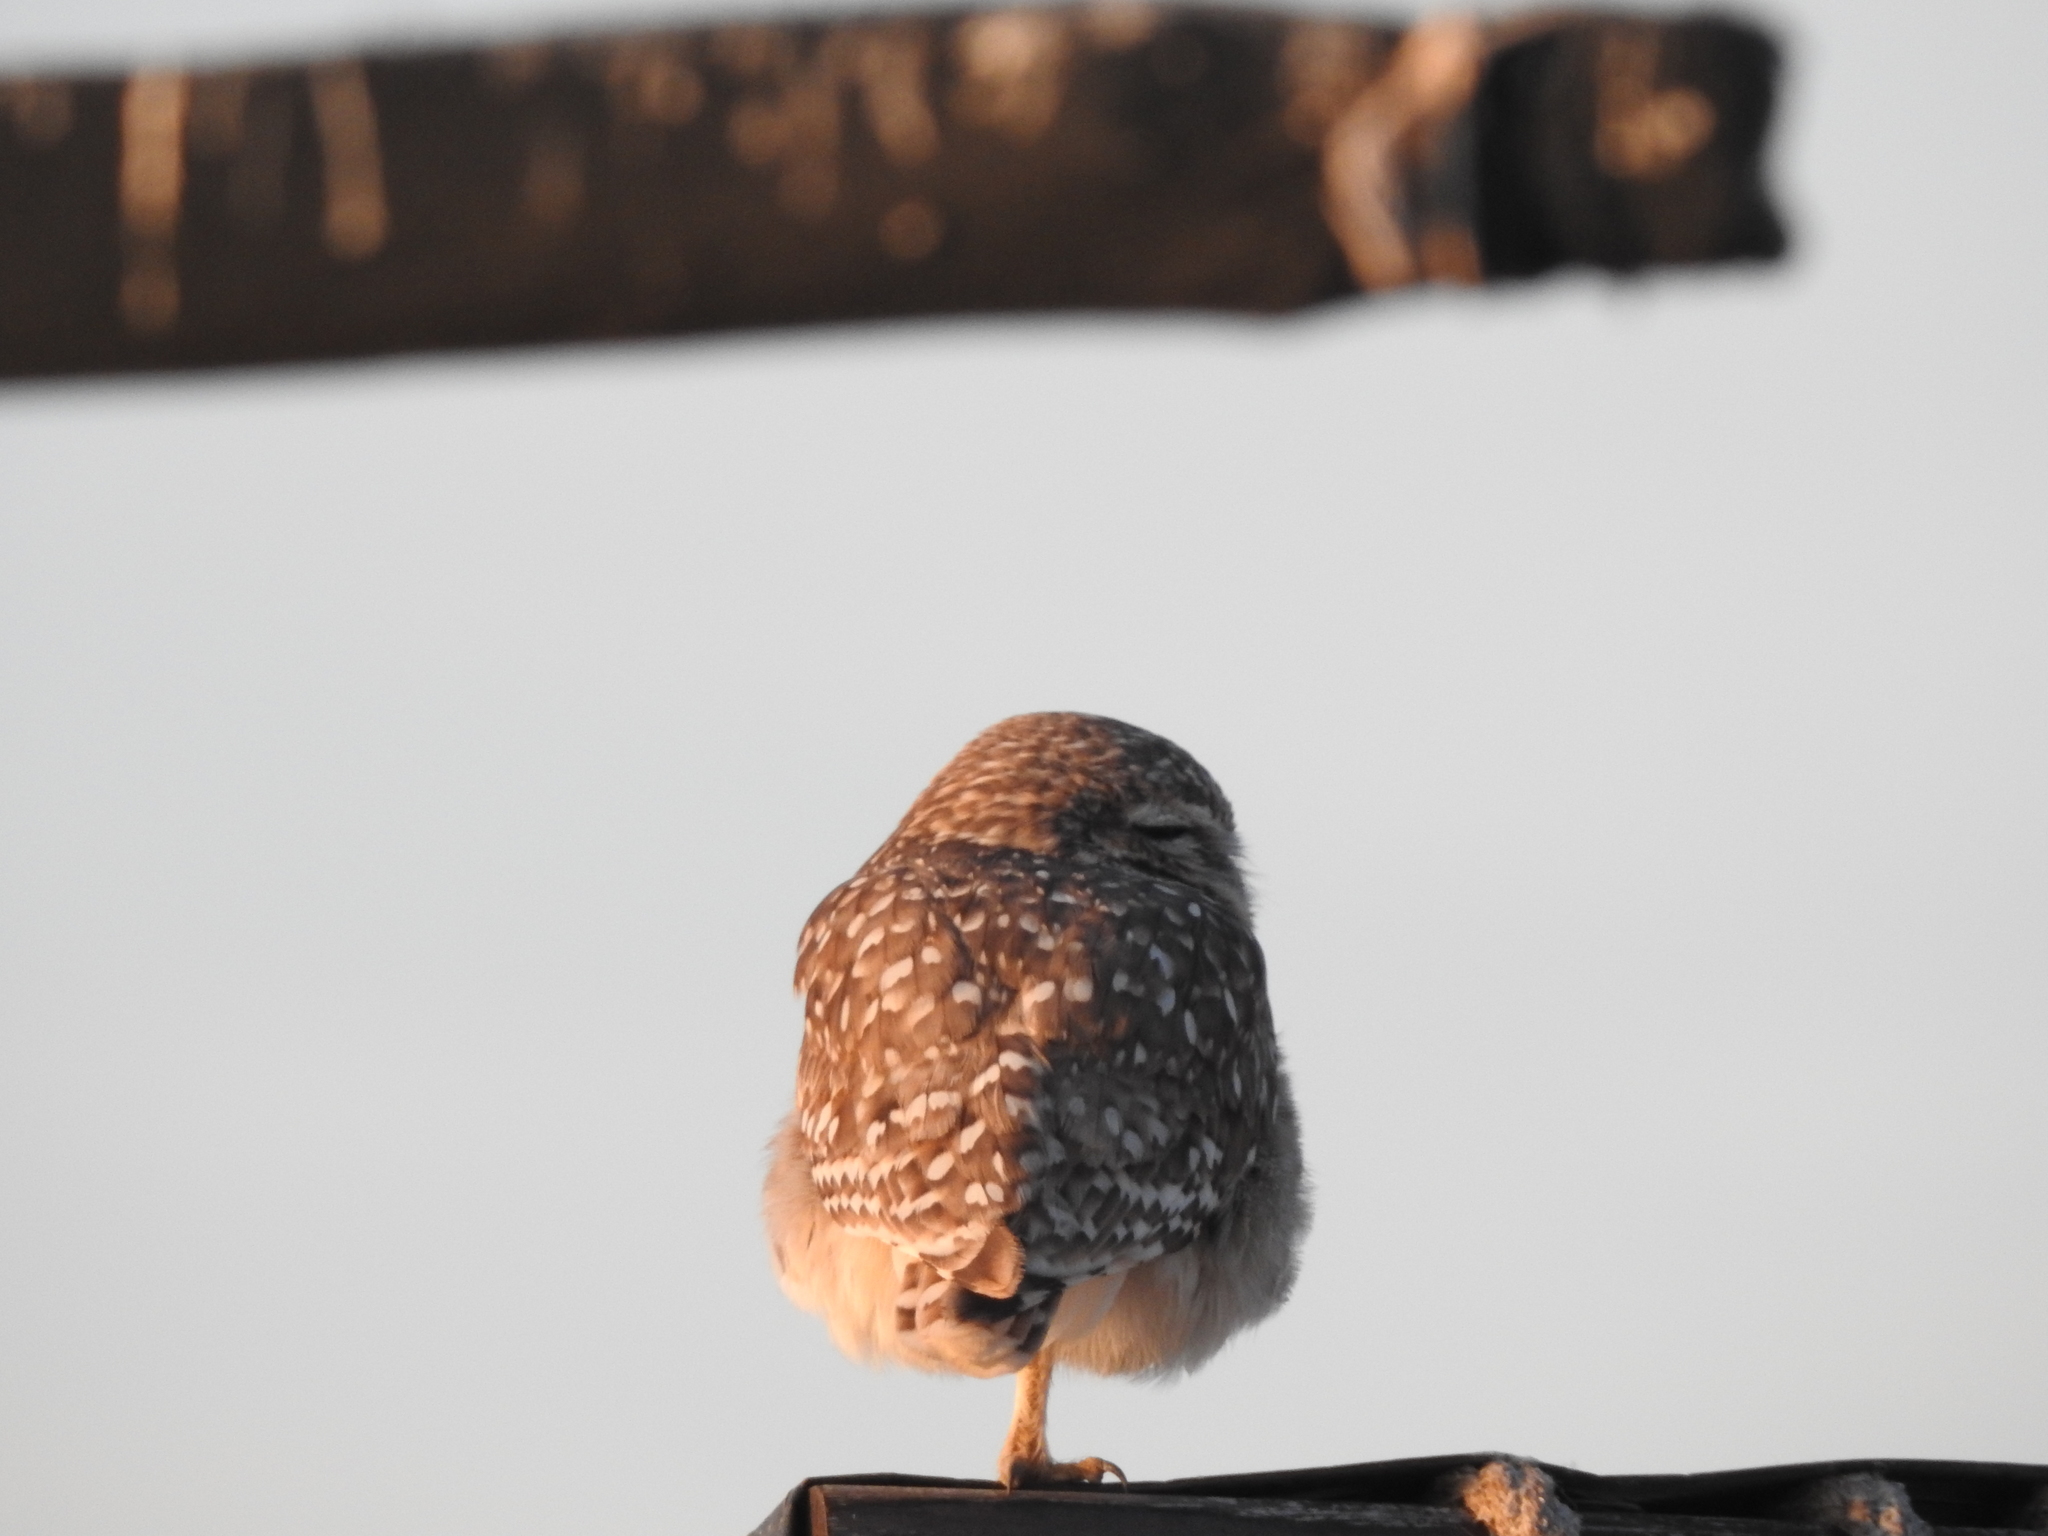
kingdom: Animalia
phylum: Chordata
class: Aves
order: Strigiformes
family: Strigidae
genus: Athene
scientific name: Athene cunicularia
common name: Burrowing owl
